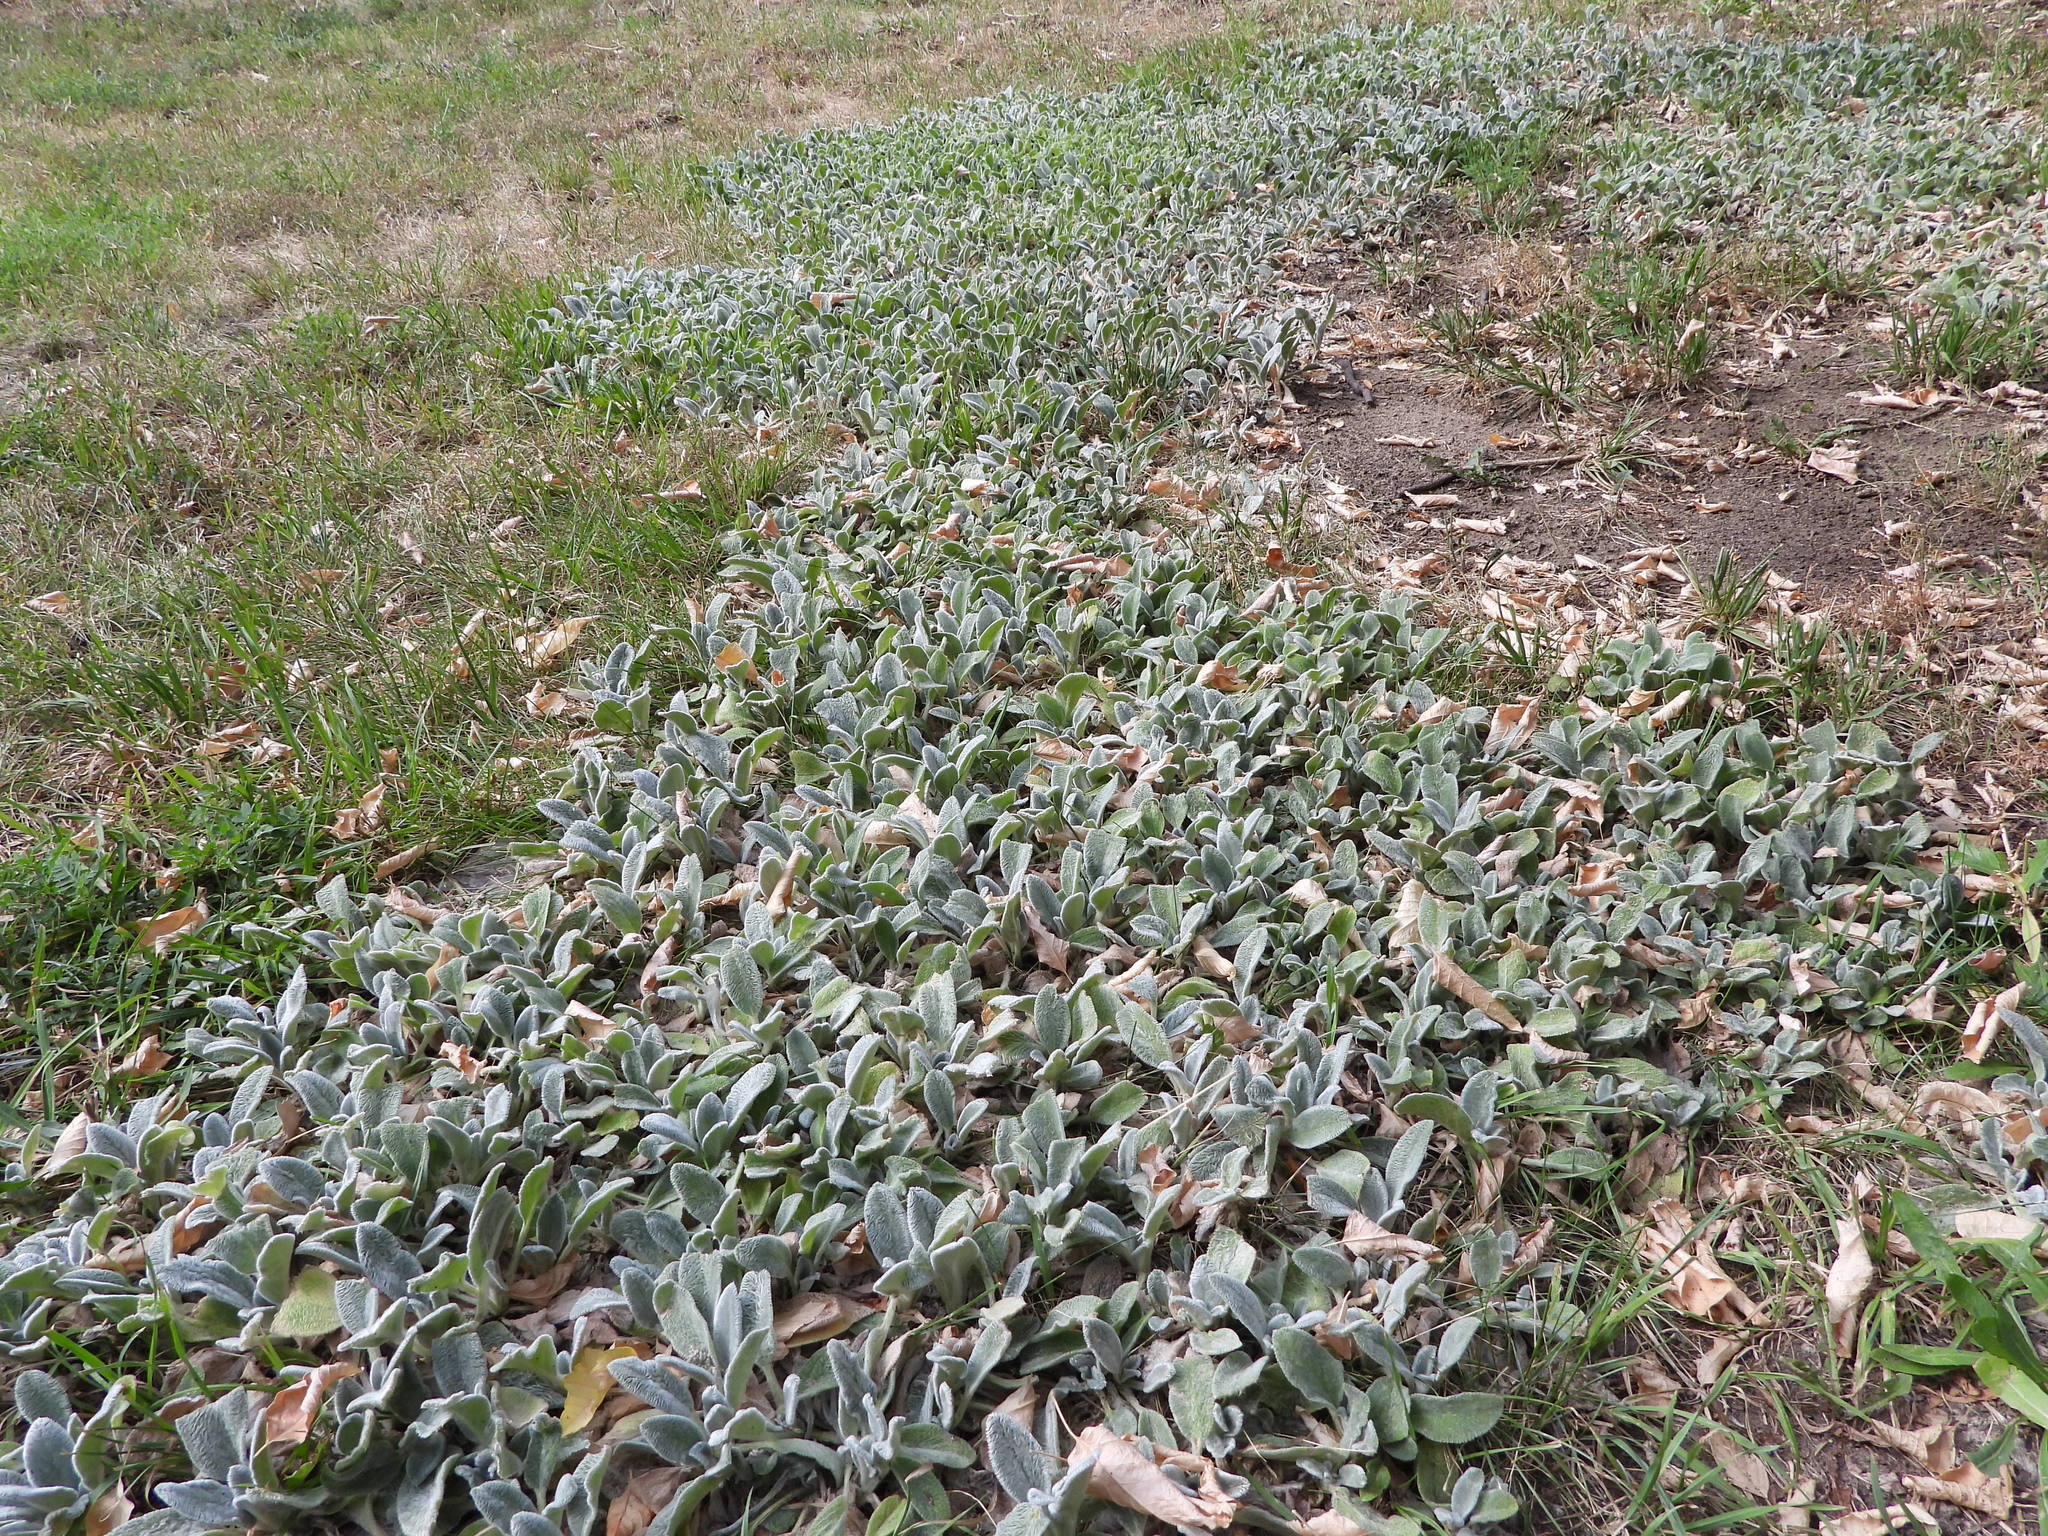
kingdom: Plantae
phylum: Tracheophyta
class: Magnoliopsida
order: Lamiales
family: Lamiaceae
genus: Stachys
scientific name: Stachys byzantina
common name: Lamb's-ear
